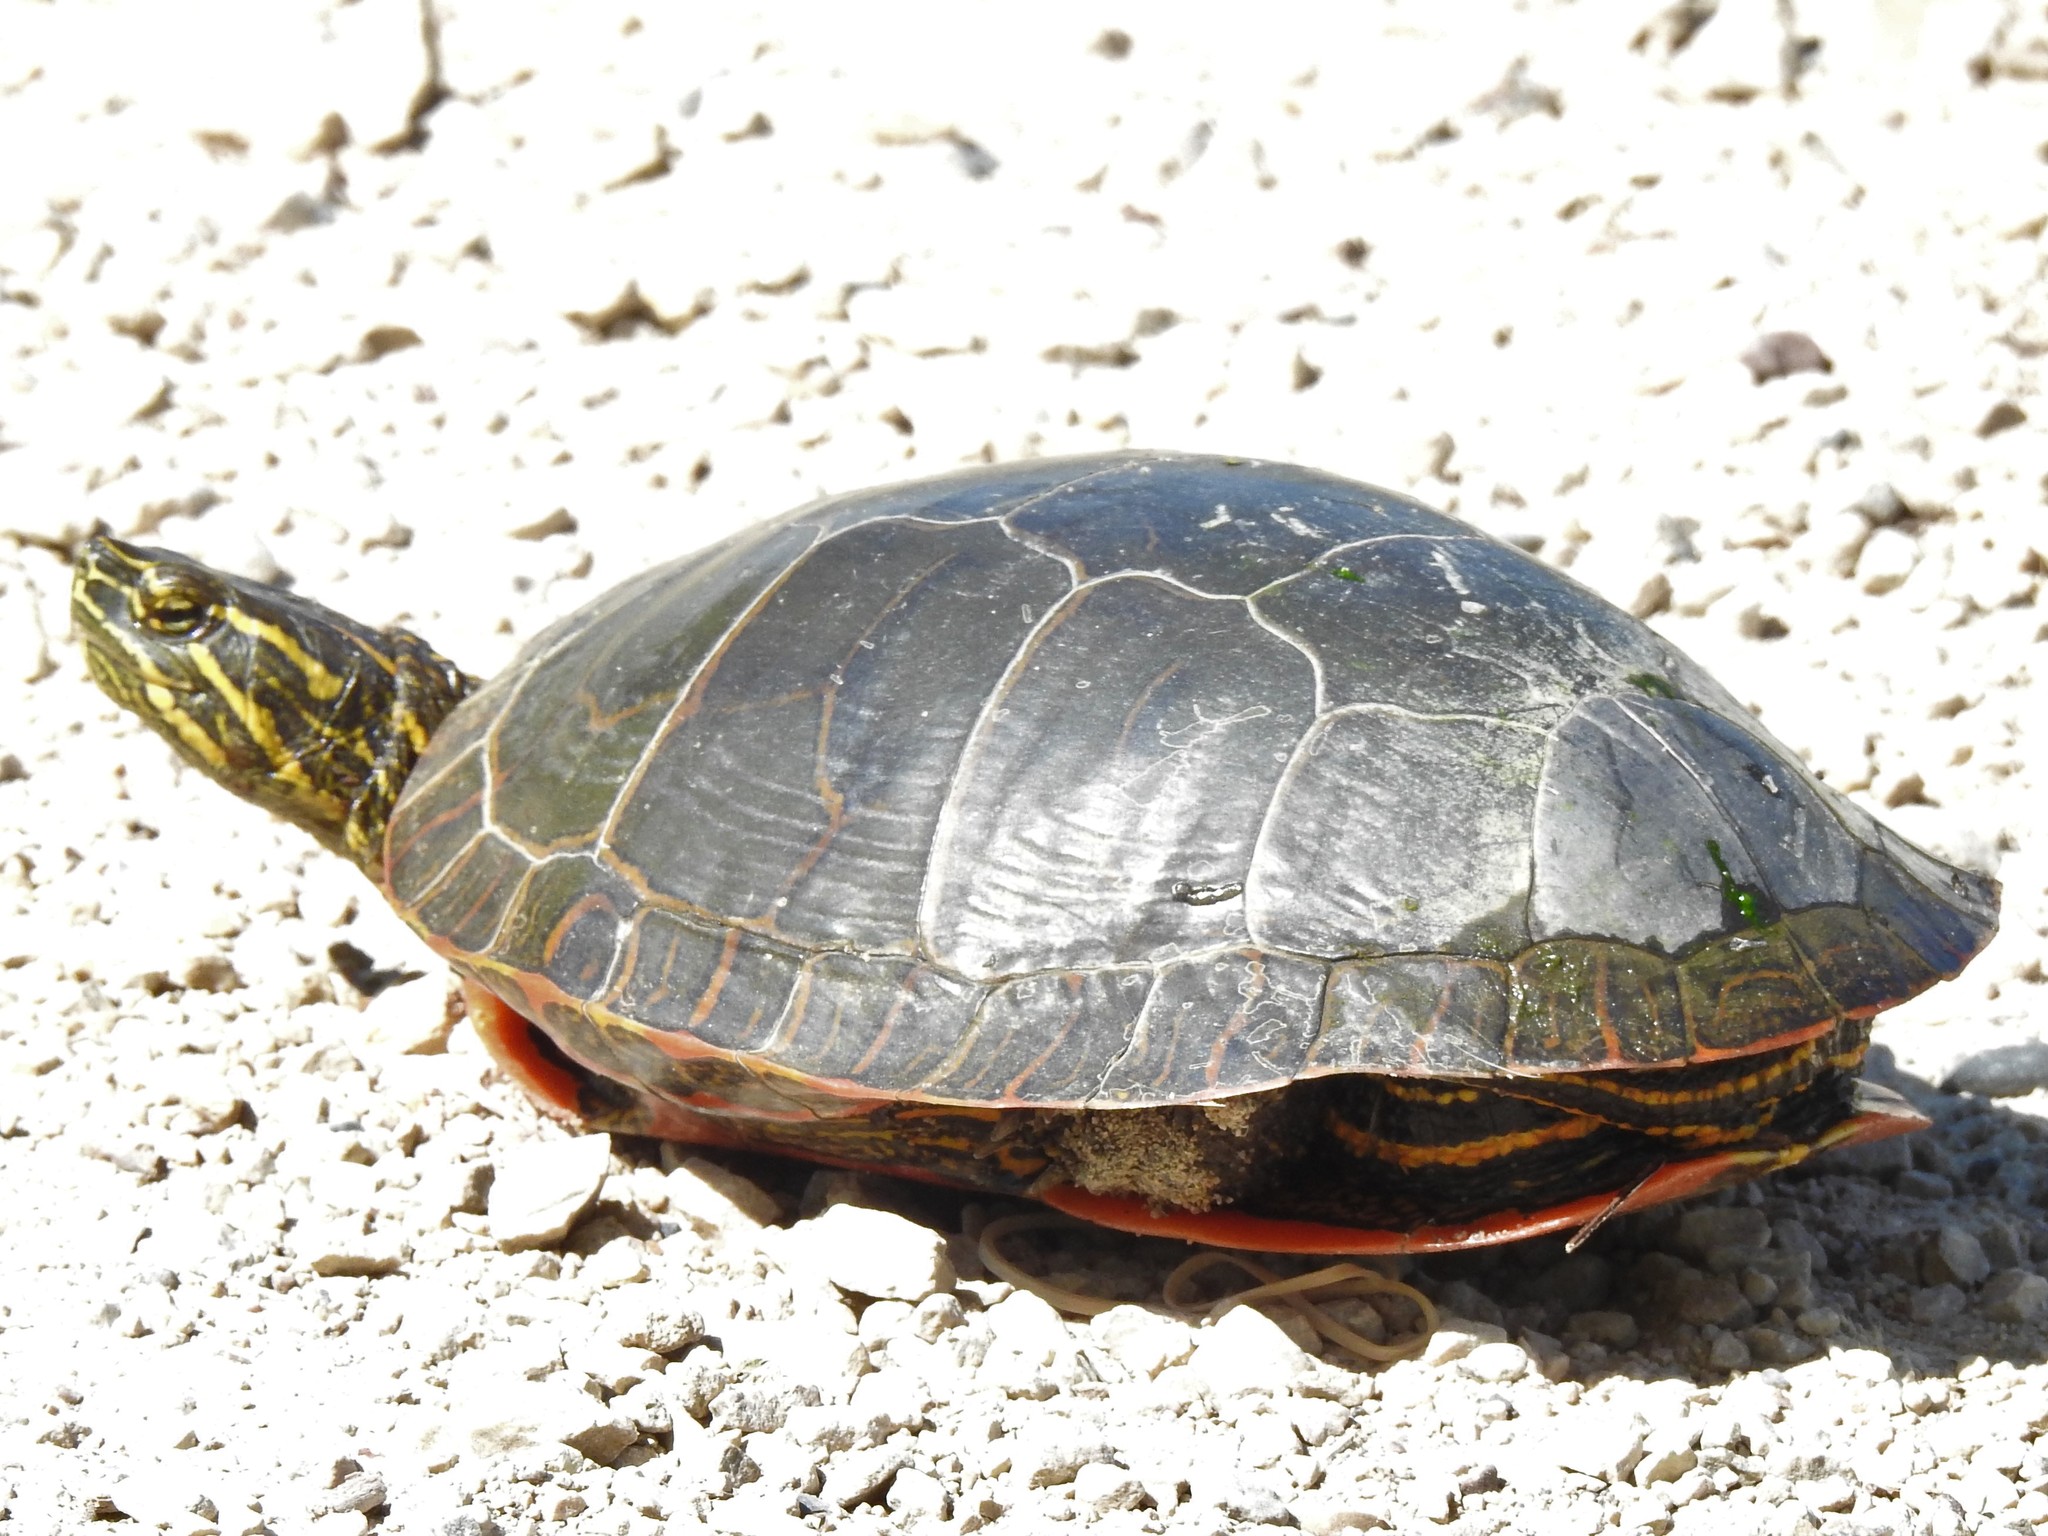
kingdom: Animalia
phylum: Chordata
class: Testudines
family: Emydidae
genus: Chrysemys
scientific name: Chrysemys picta
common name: Painted turtle
